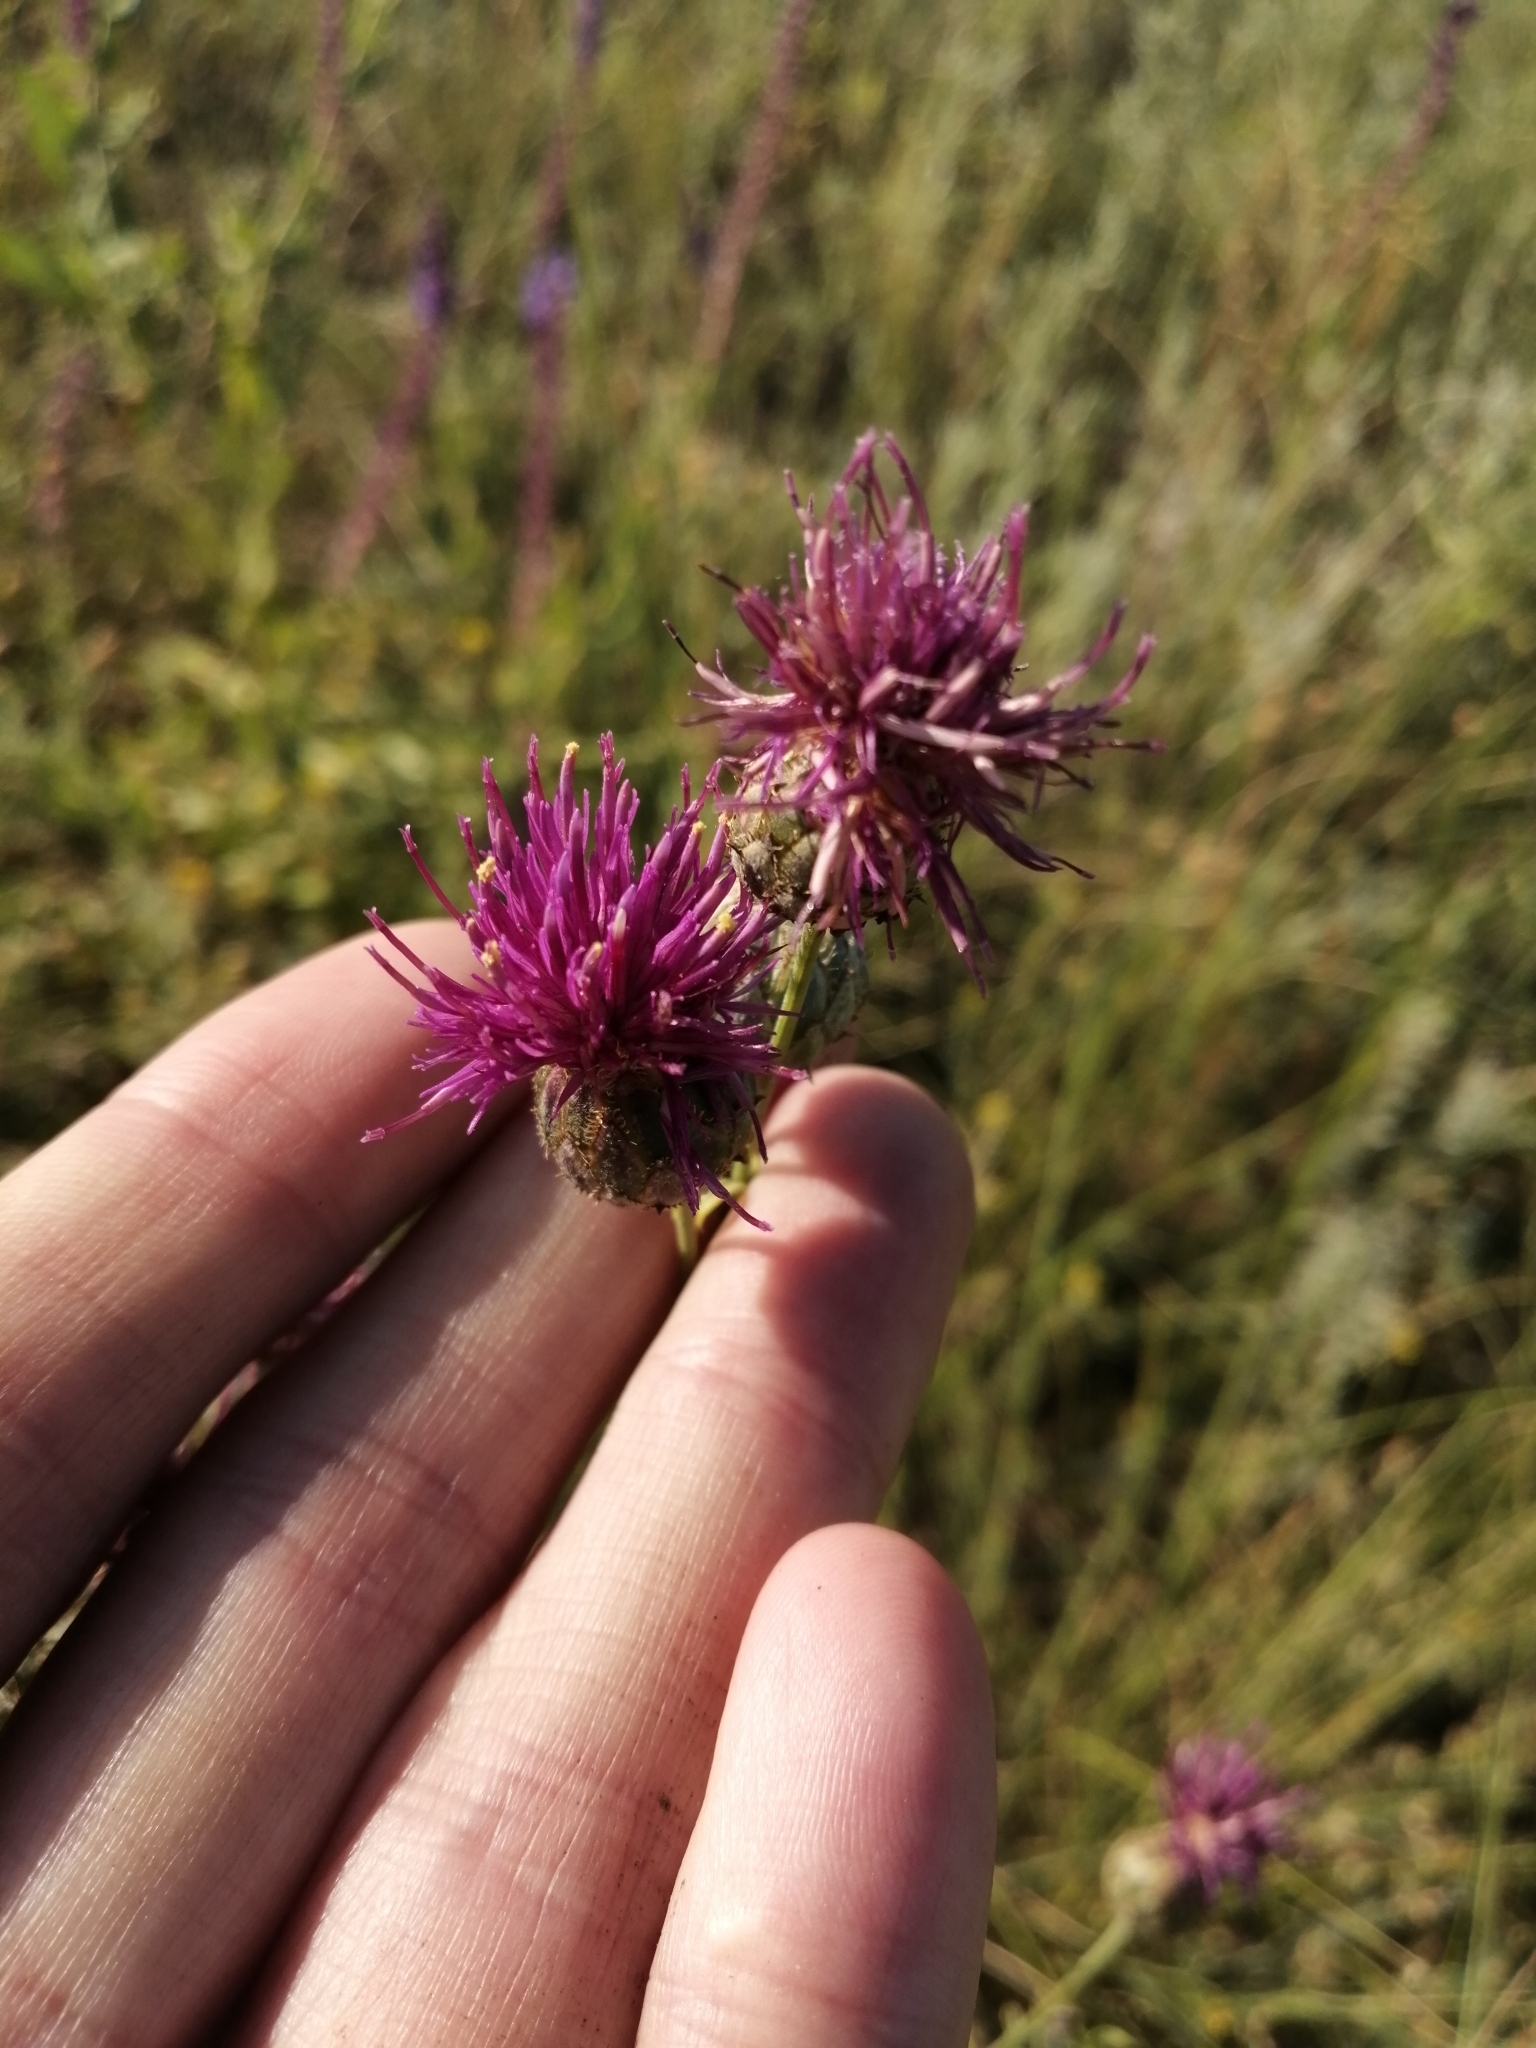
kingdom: Plantae
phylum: Tracheophyta
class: Magnoliopsida
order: Asterales
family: Asteraceae
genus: Centaurea
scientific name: Centaurea apiculata
